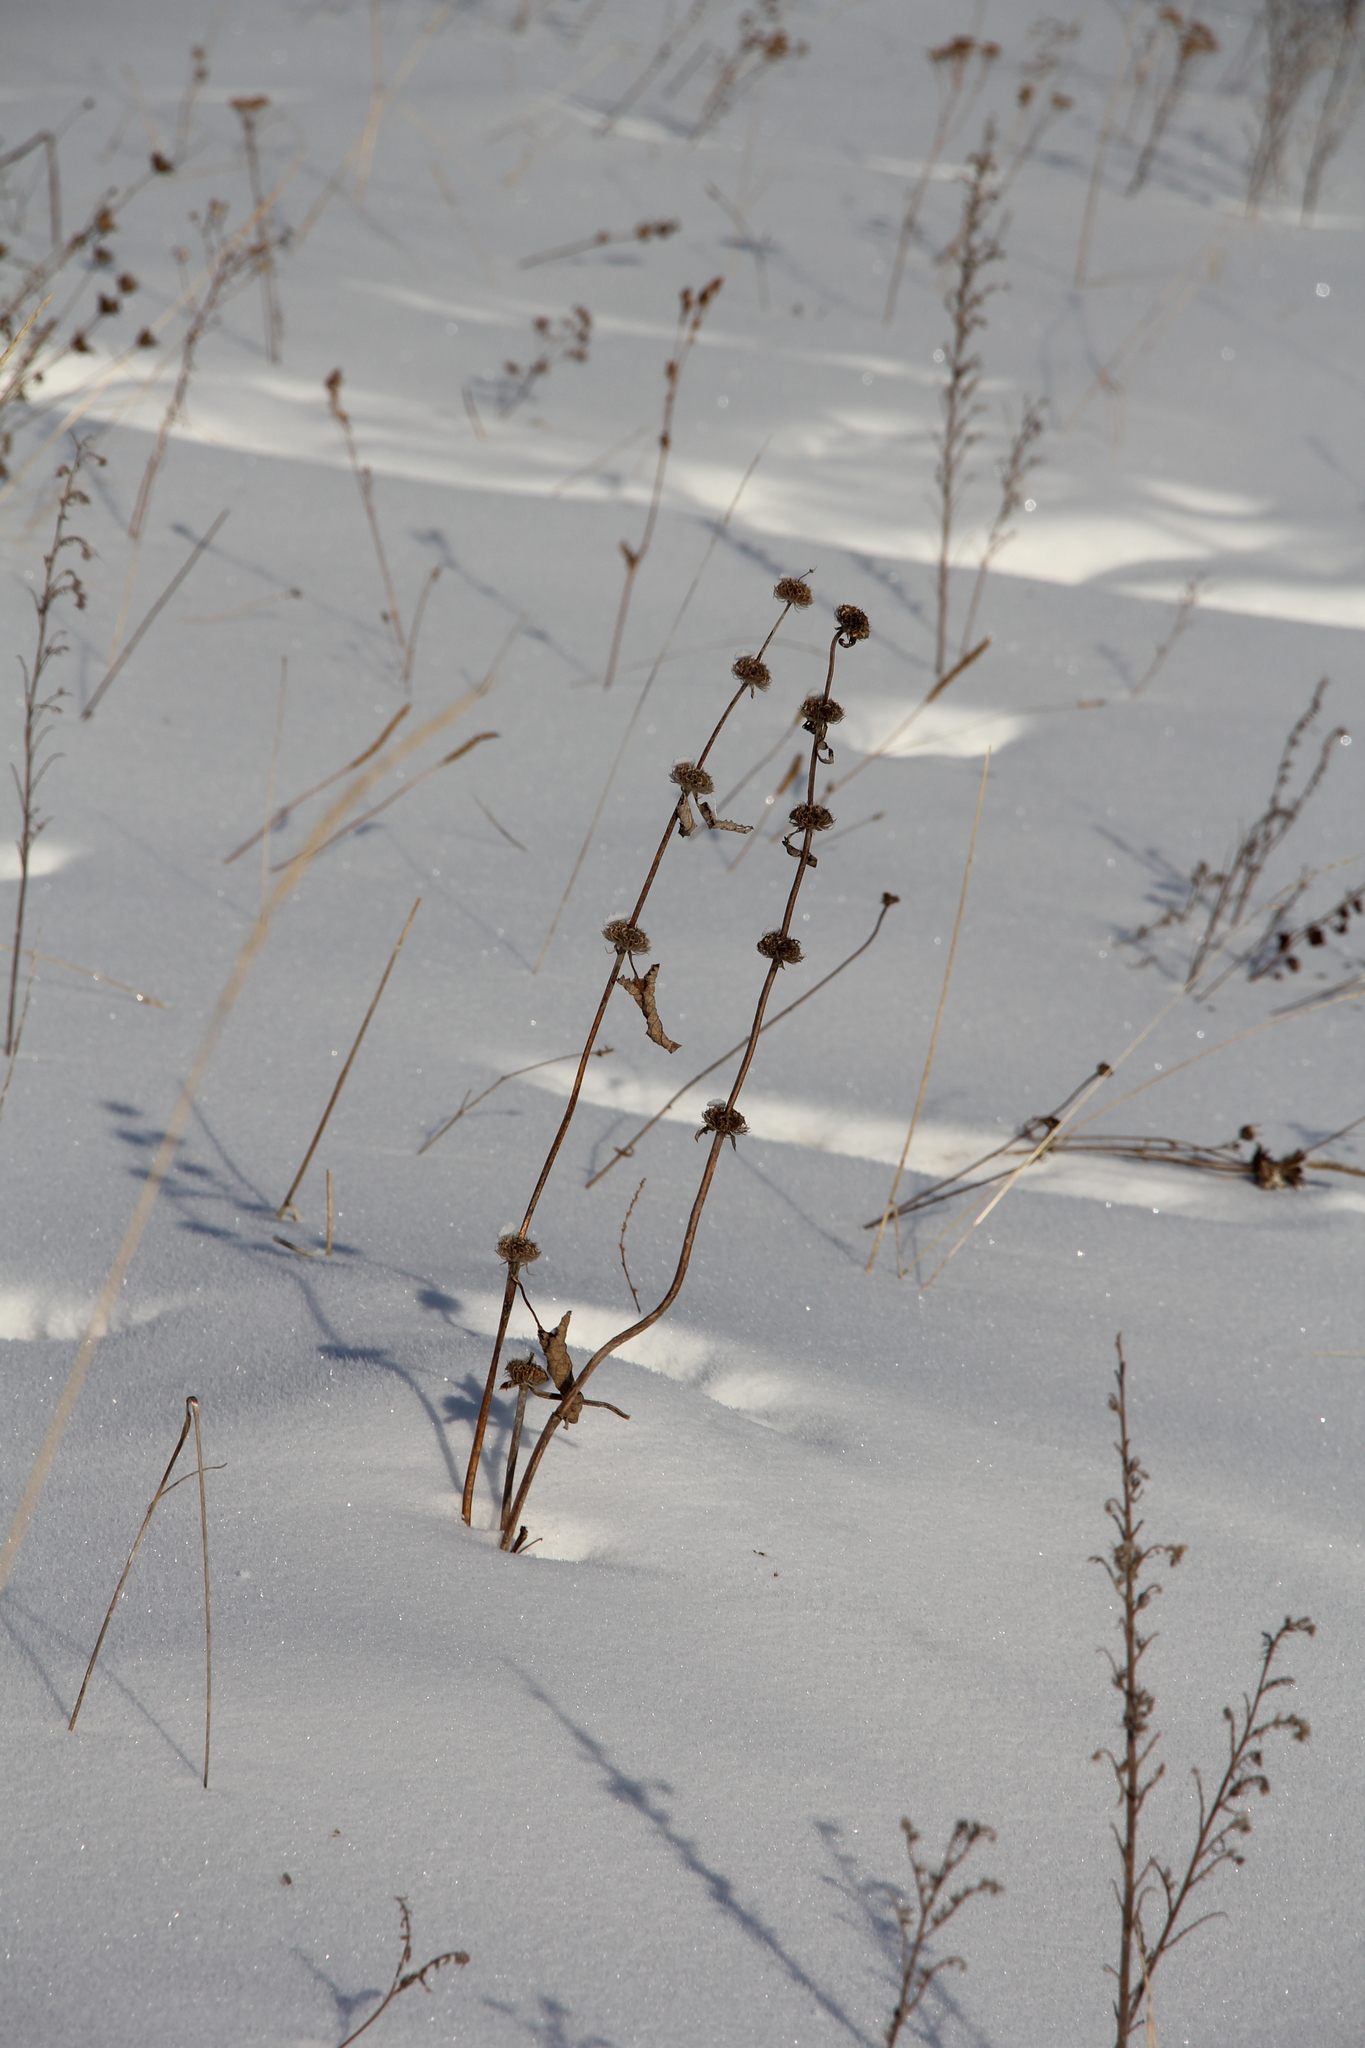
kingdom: Plantae
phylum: Tracheophyta
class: Magnoliopsida
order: Lamiales
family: Lamiaceae
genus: Phlomoides
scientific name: Phlomoides tuberosa
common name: Tuberous jerusalem sage
